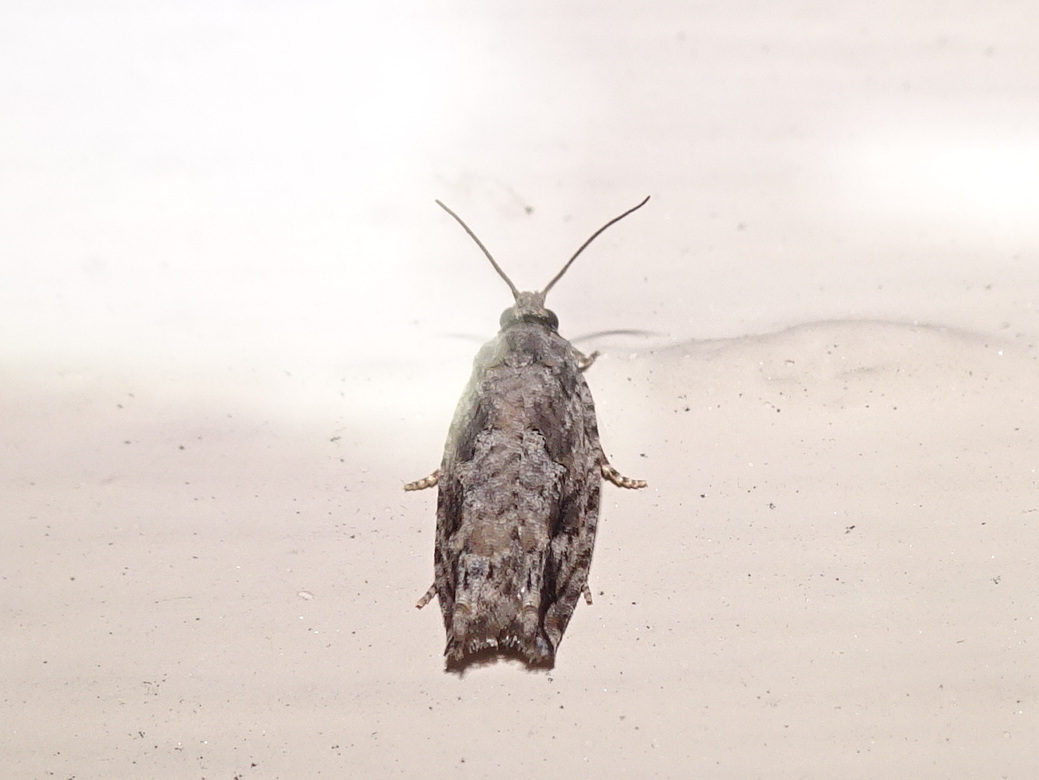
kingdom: Animalia
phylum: Arthropoda
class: Insecta
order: Lepidoptera
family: Tortricidae
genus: Gretchena
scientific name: Gretchena bolliana
